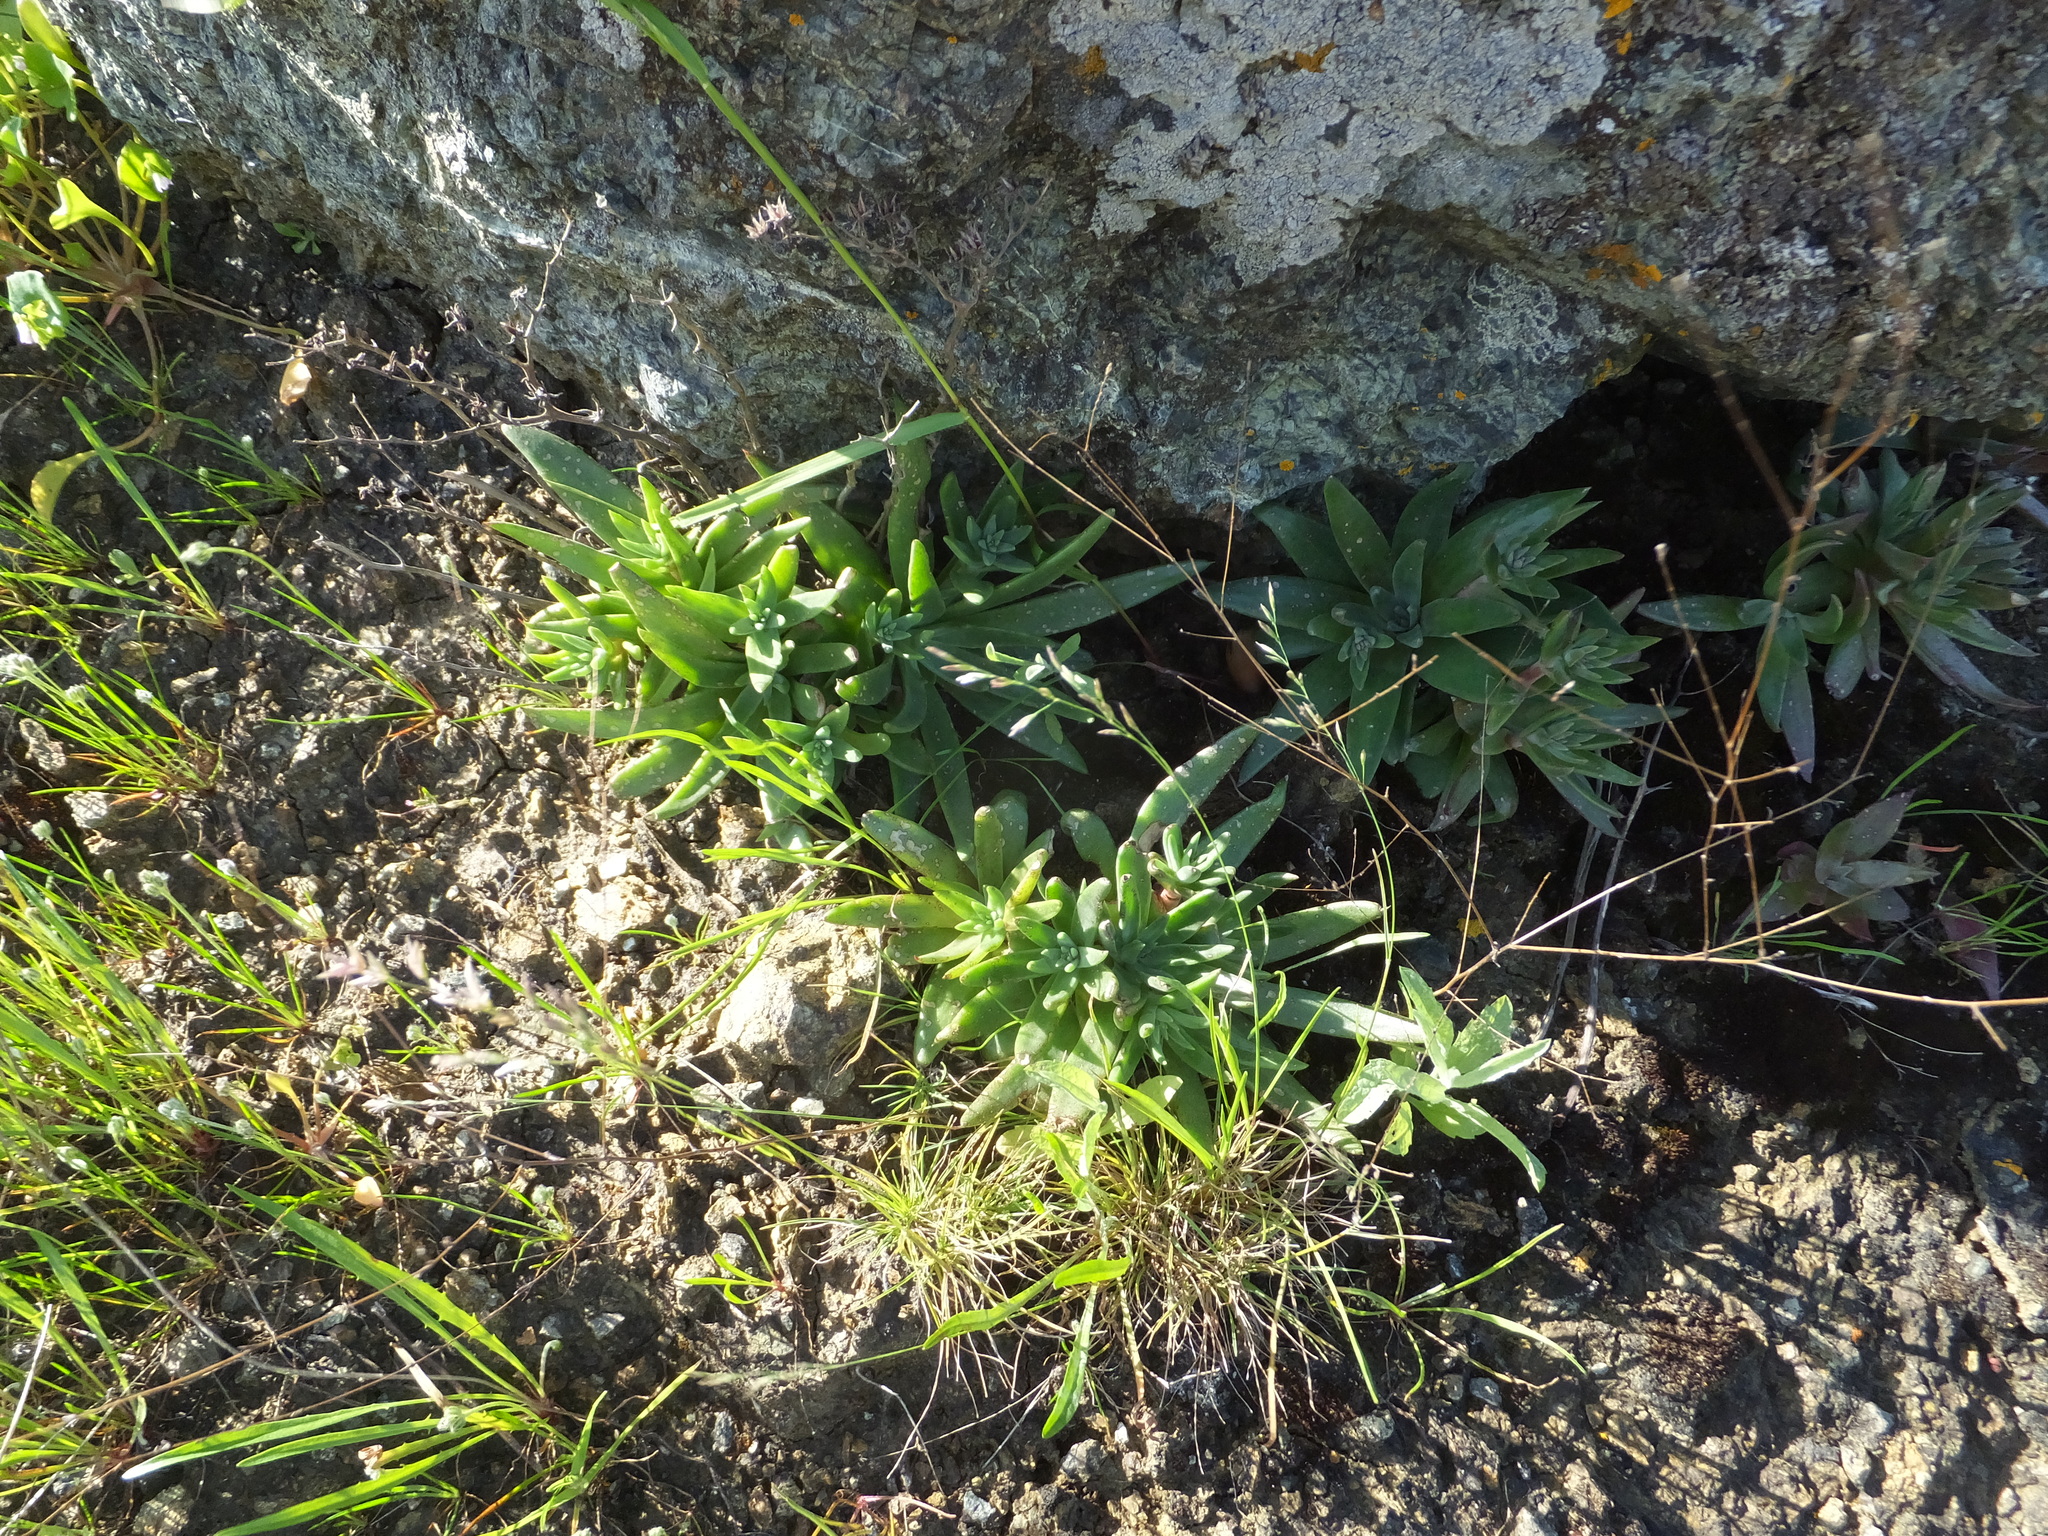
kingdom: Plantae
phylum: Tracheophyta
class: Magnoliopsida
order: Saxifragales
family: Crassulaceae
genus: Dudleya
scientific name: Dudleya abramsii
